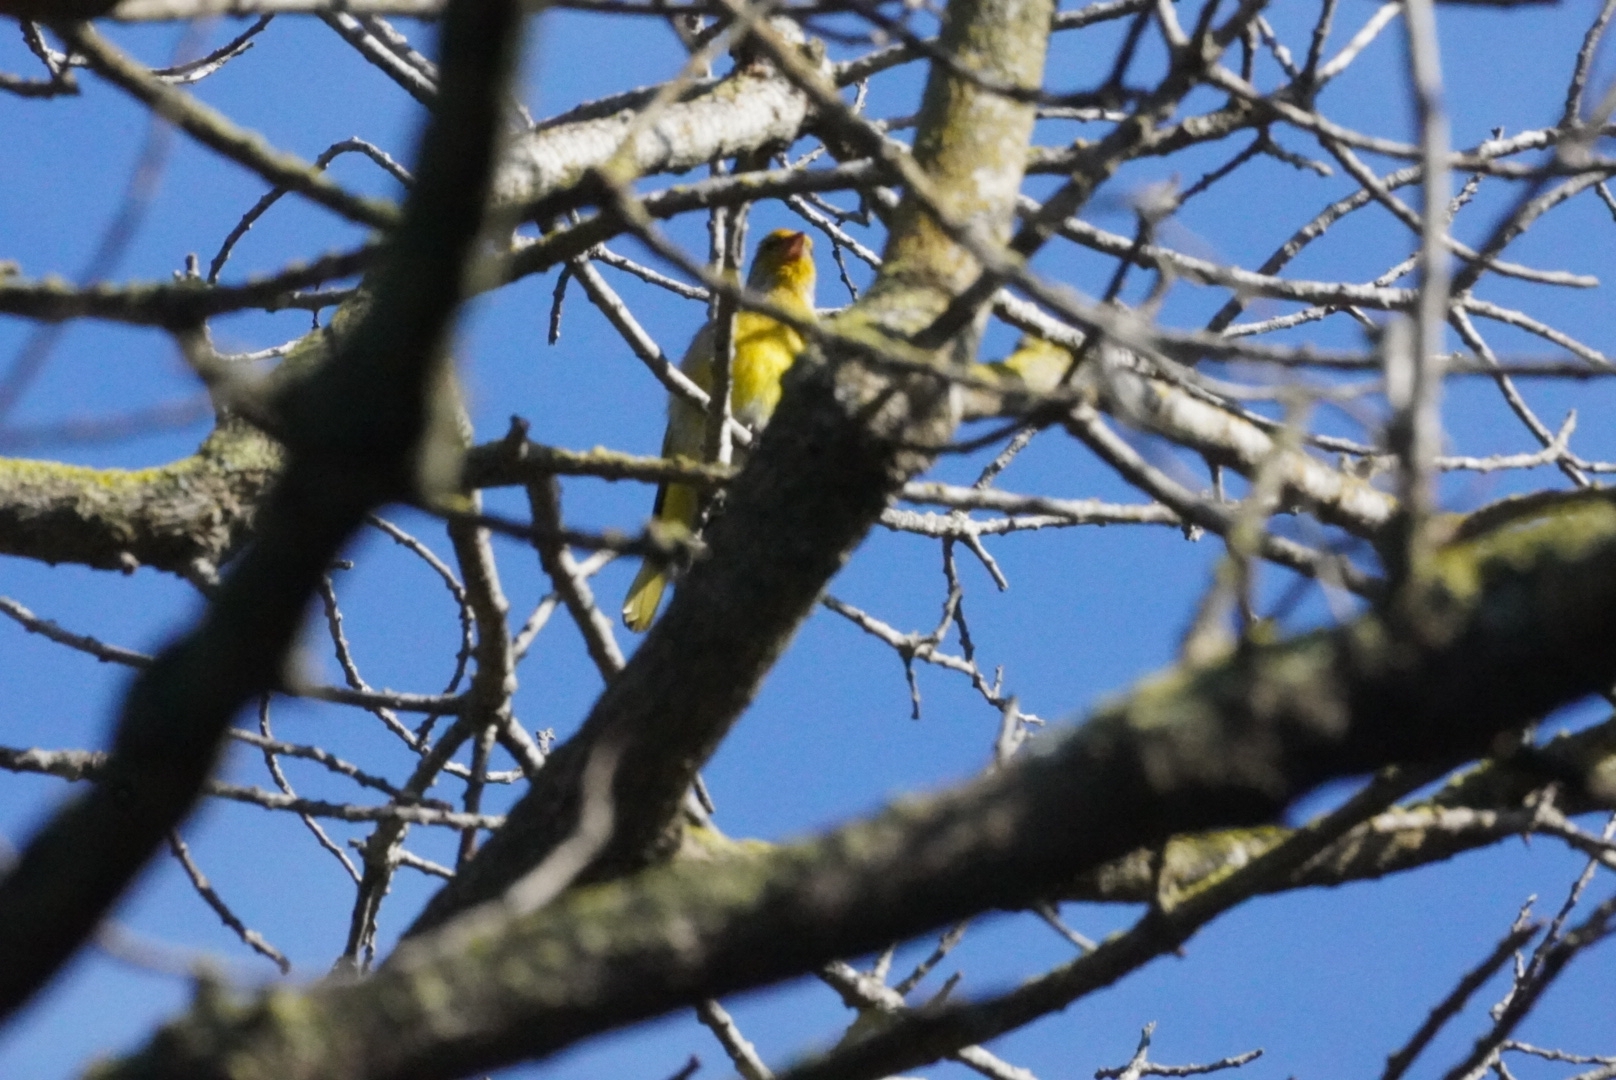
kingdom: Animalia
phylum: Chordata
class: Aves
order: Passeriformes
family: Fringillidae
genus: Serinus
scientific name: Serinus canicollis
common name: Cape canary
